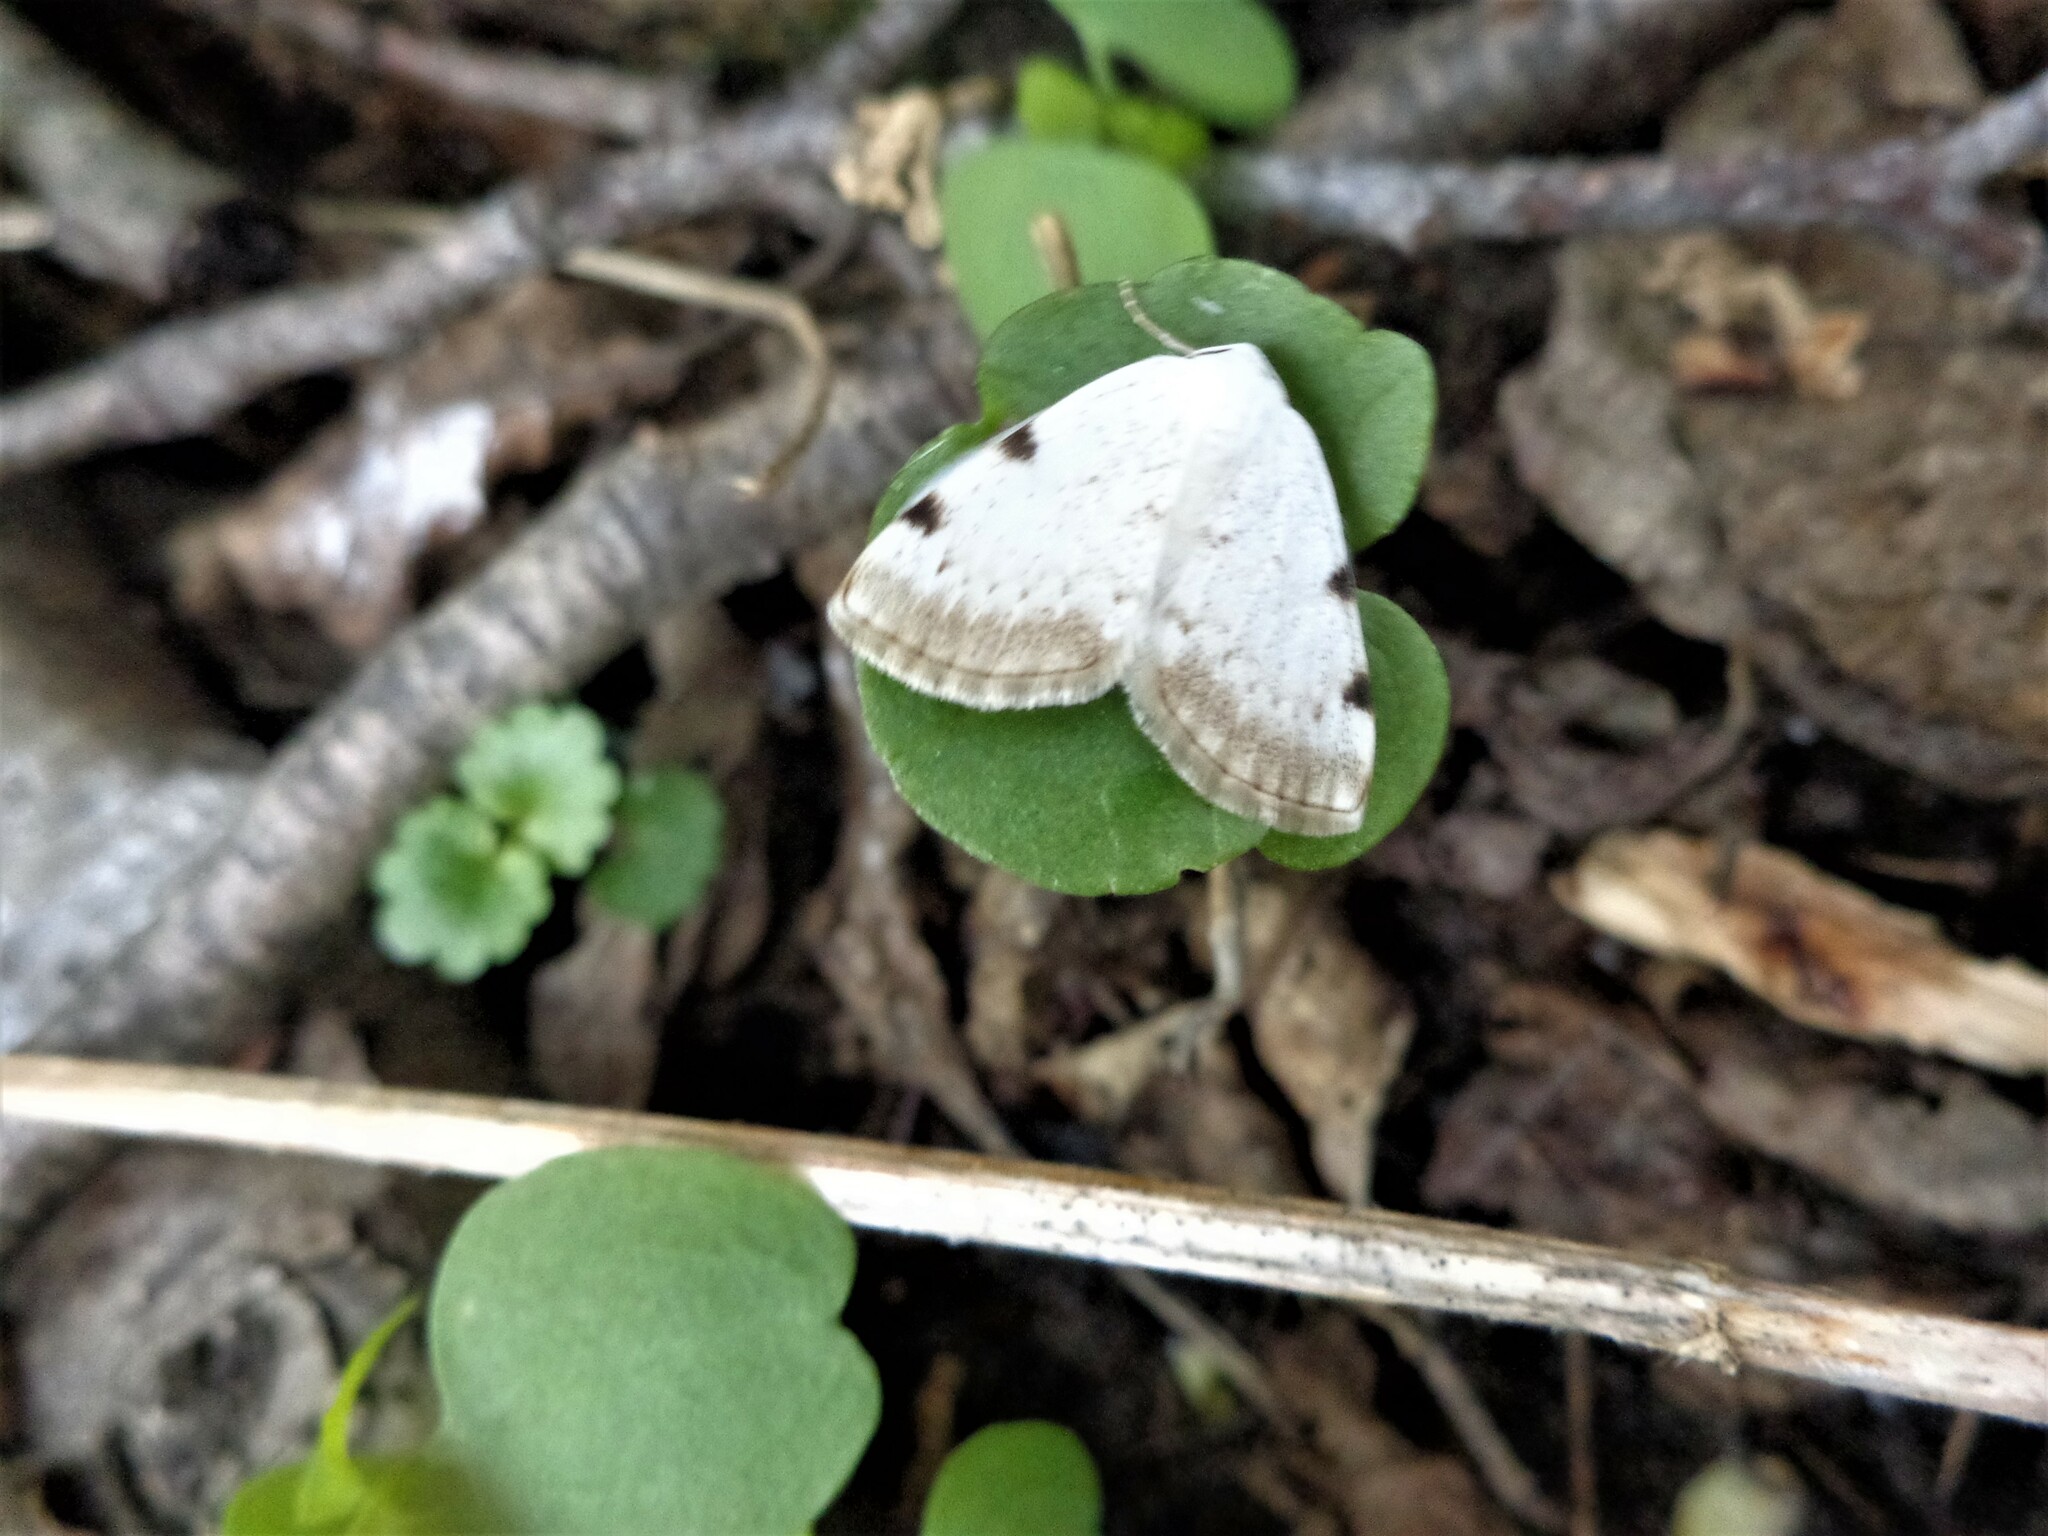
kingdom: Animalia
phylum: Arthropoda
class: Insecta
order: Lepidoptera
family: Geometridae
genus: Lomographa
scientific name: Lomographa bimaculata
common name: White-pinion spotted
